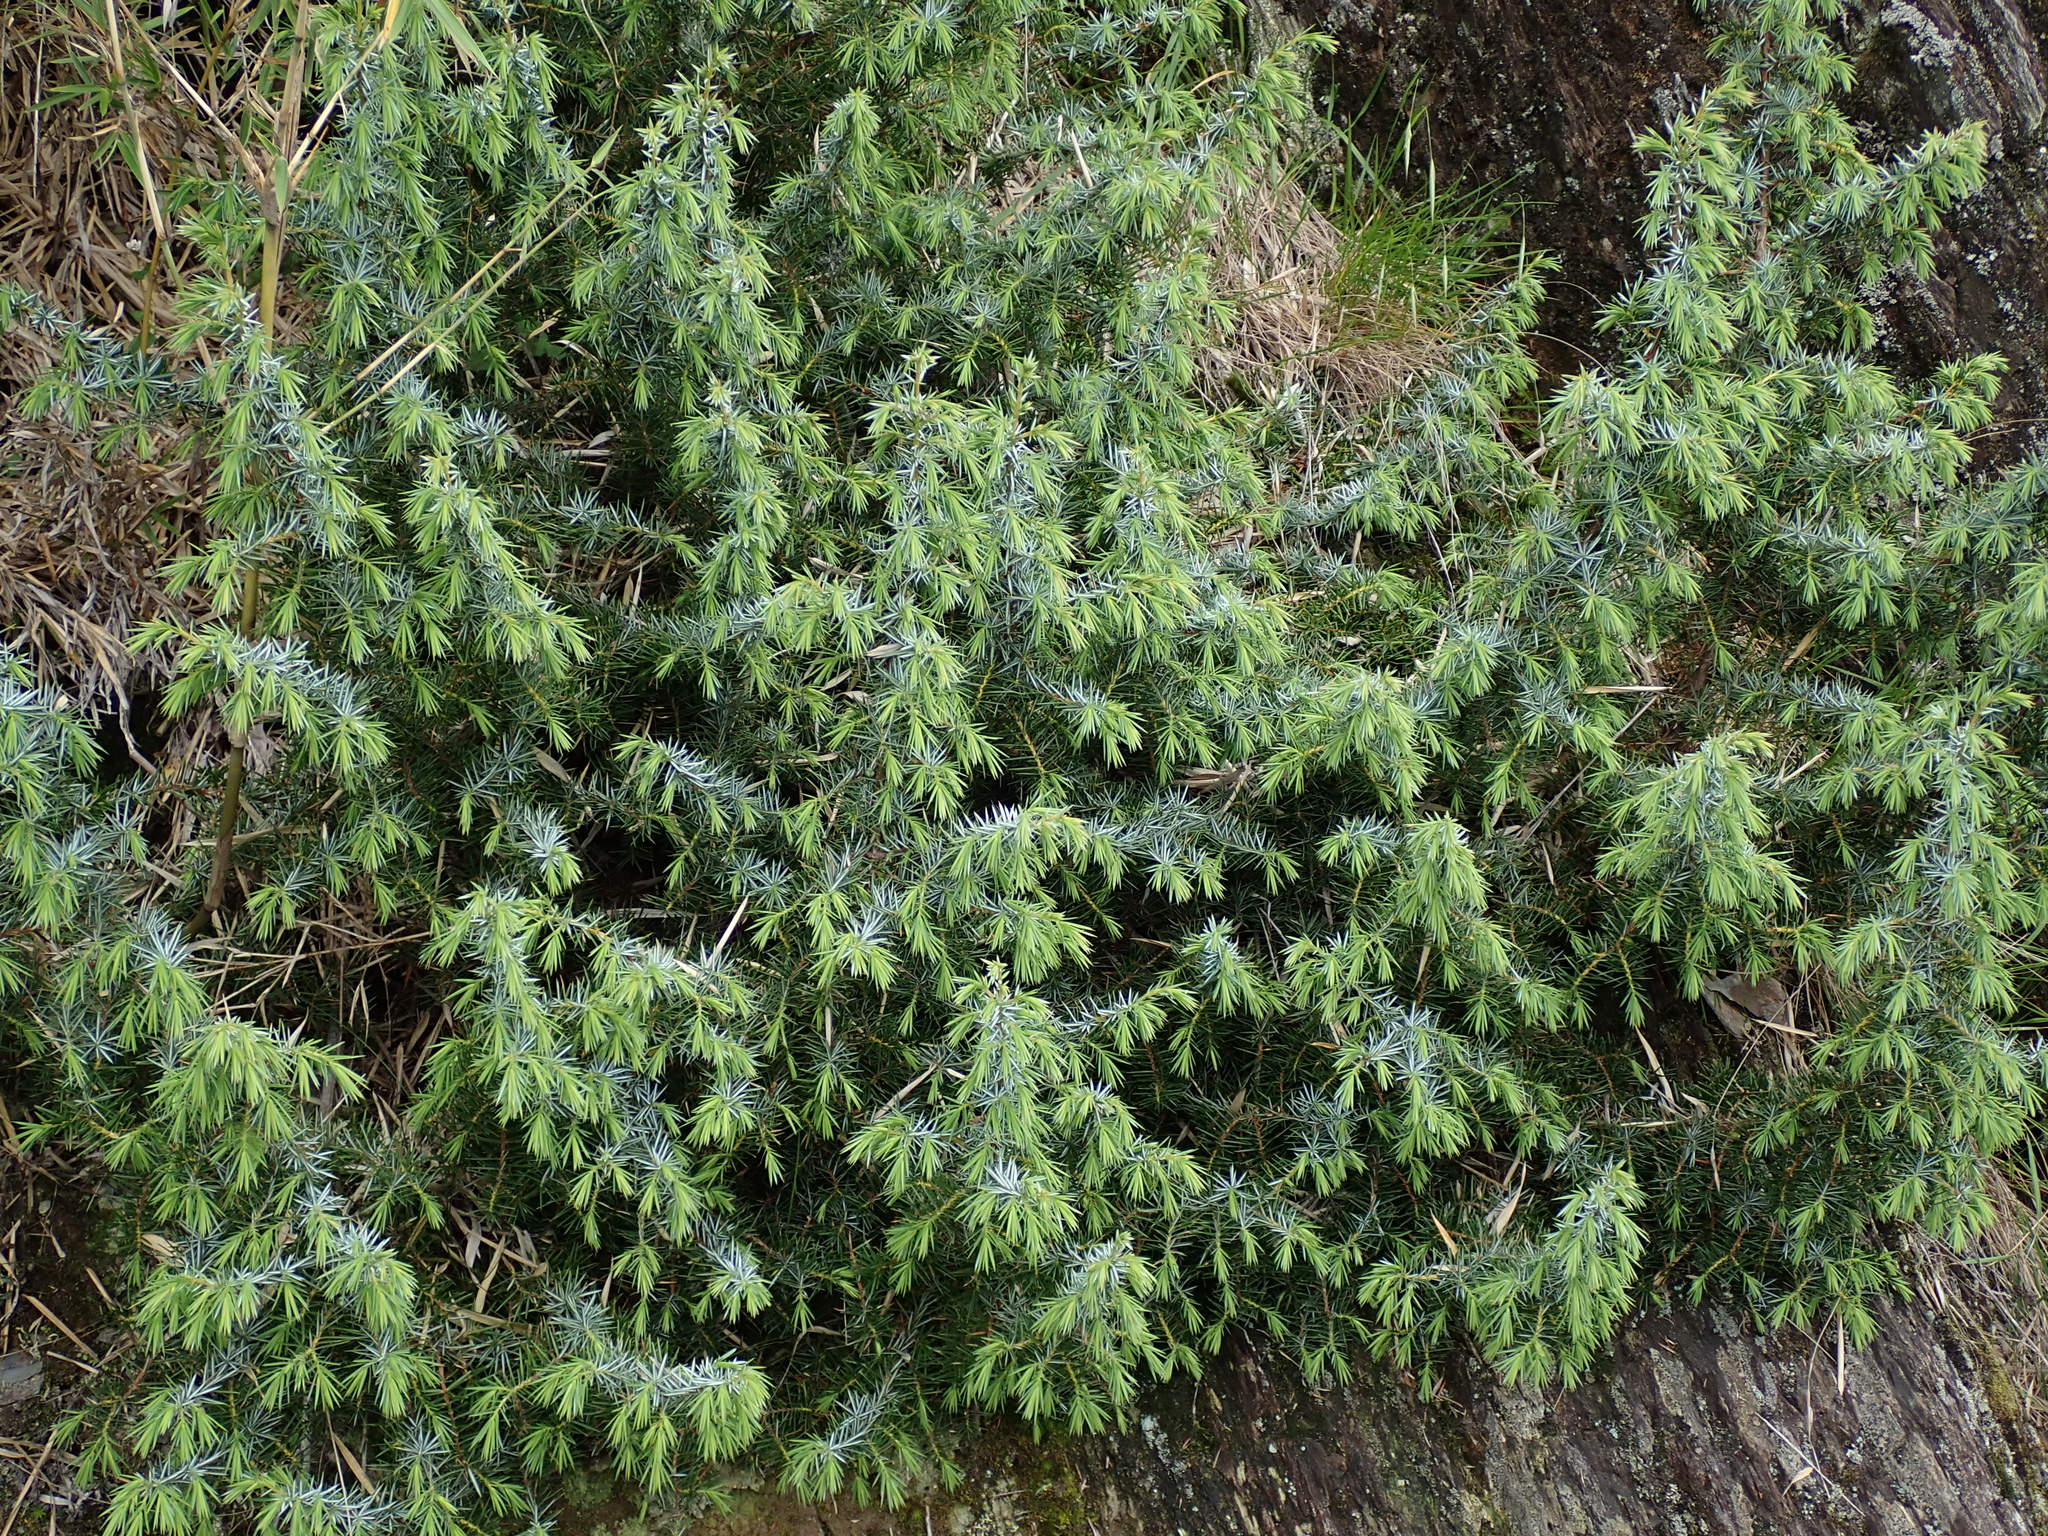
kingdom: Plantae
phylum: Tracheophyta
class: Pinopsida
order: Pinales
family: Cupressaceae
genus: Juniperus
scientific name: Juniperus formosana
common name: Formosan juniper
